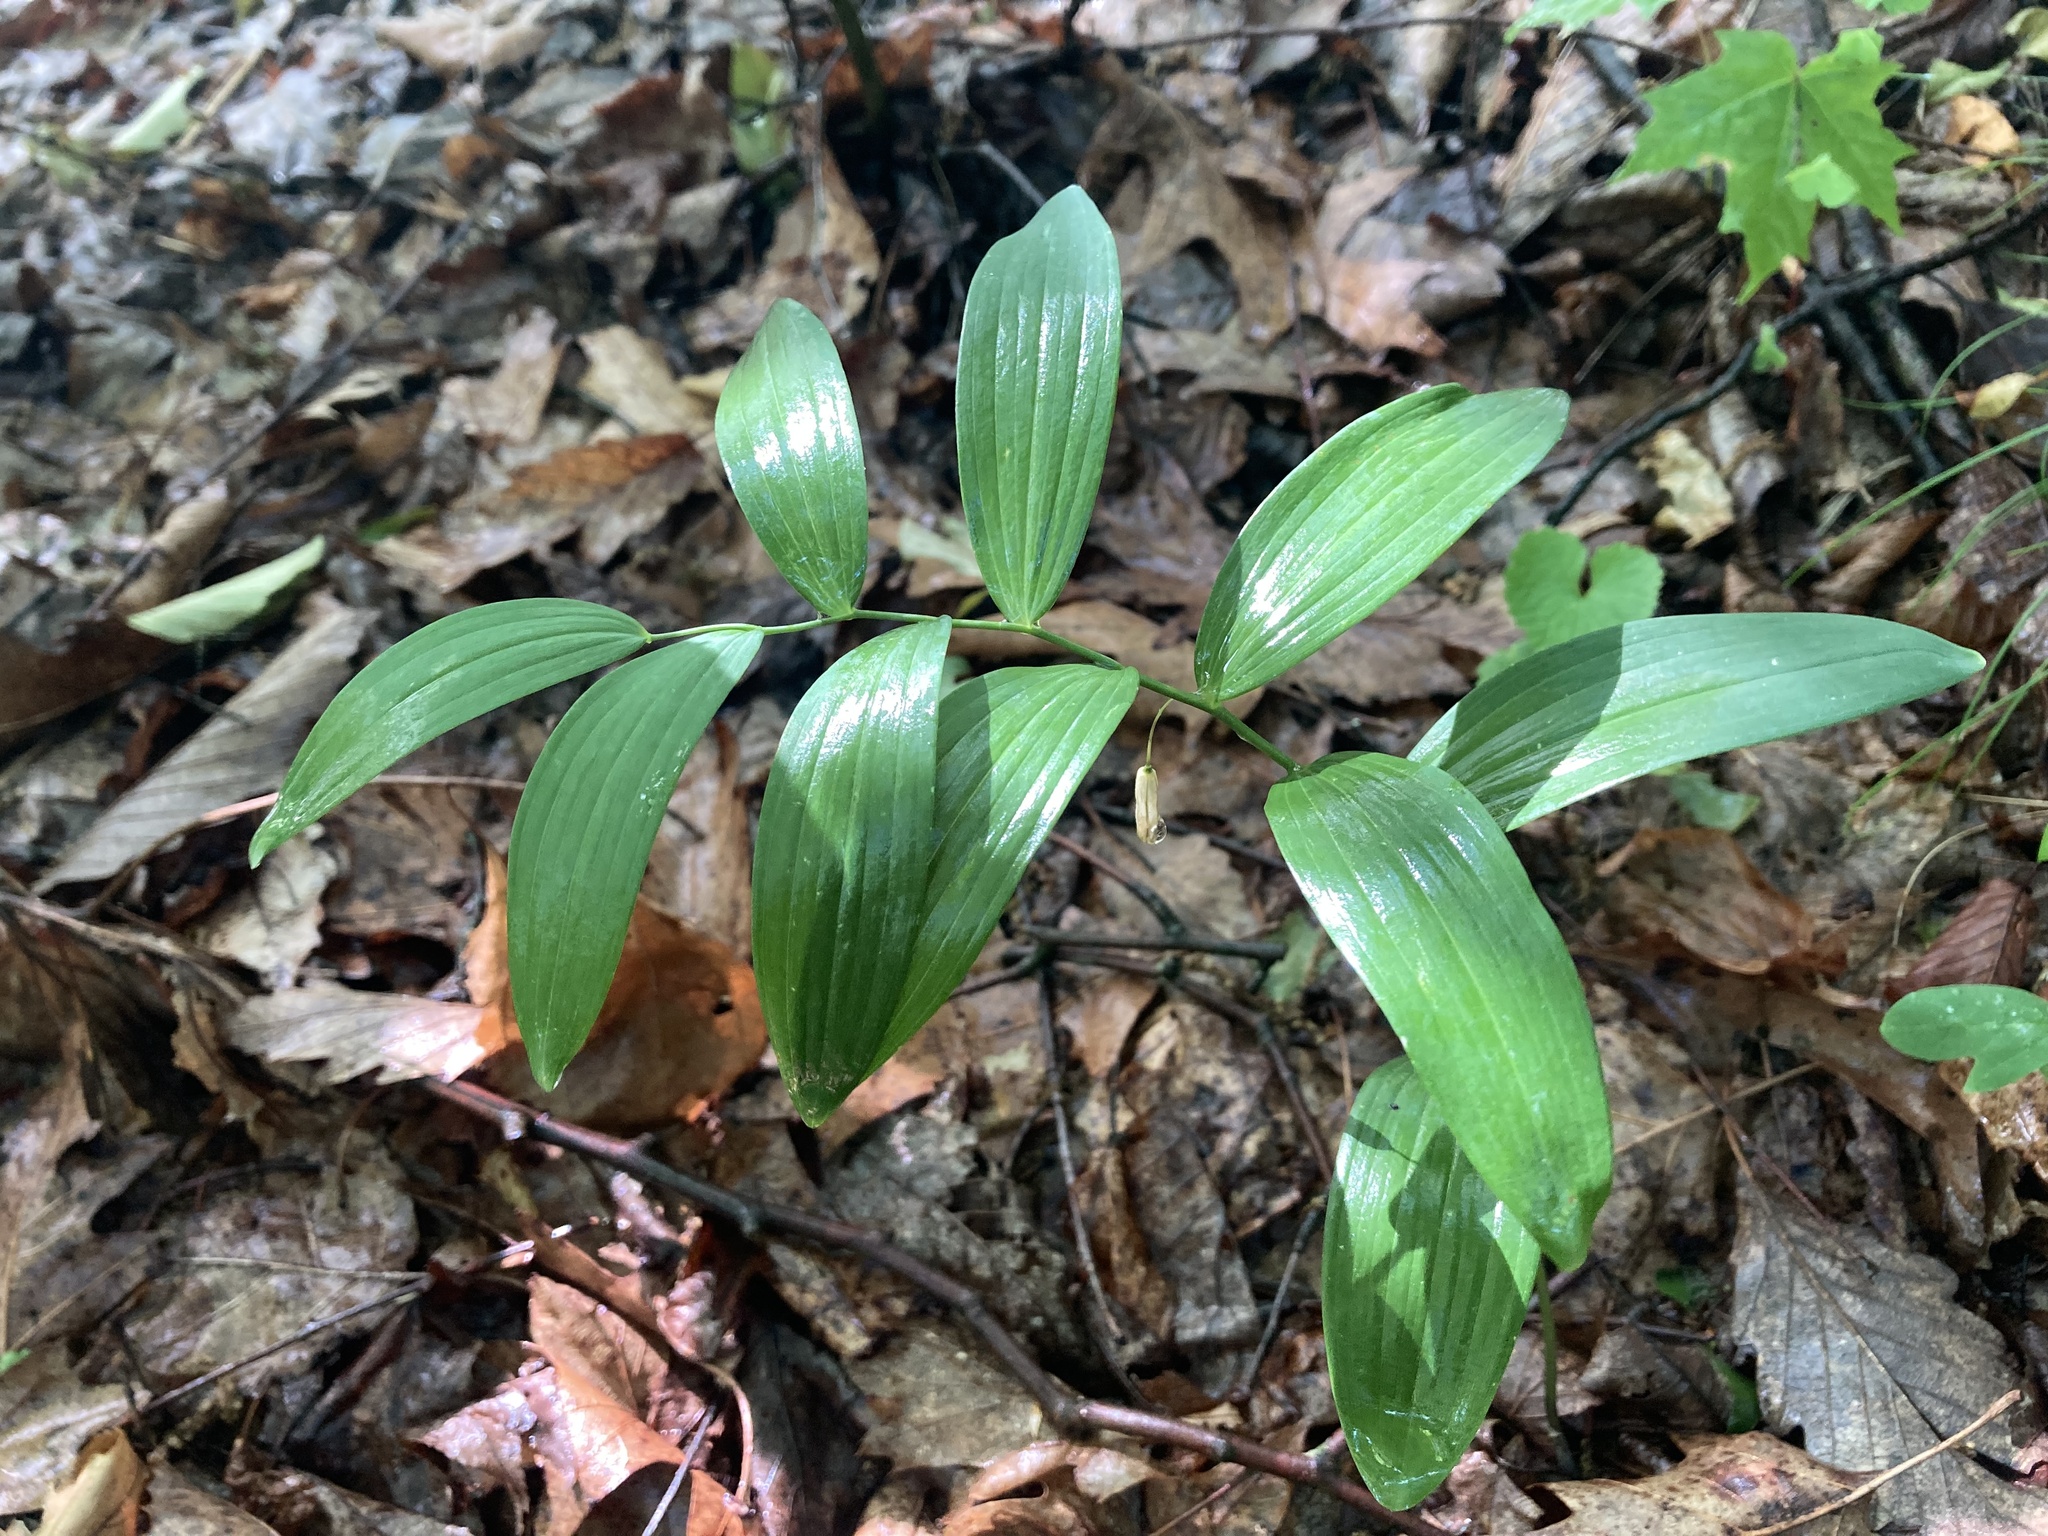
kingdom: Plantae
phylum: Tracheophyta
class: Liliopsida
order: Asparagales
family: Asparagaceae
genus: Polygonatum
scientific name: Polygonatum biflorum
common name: American solomon's-seal
